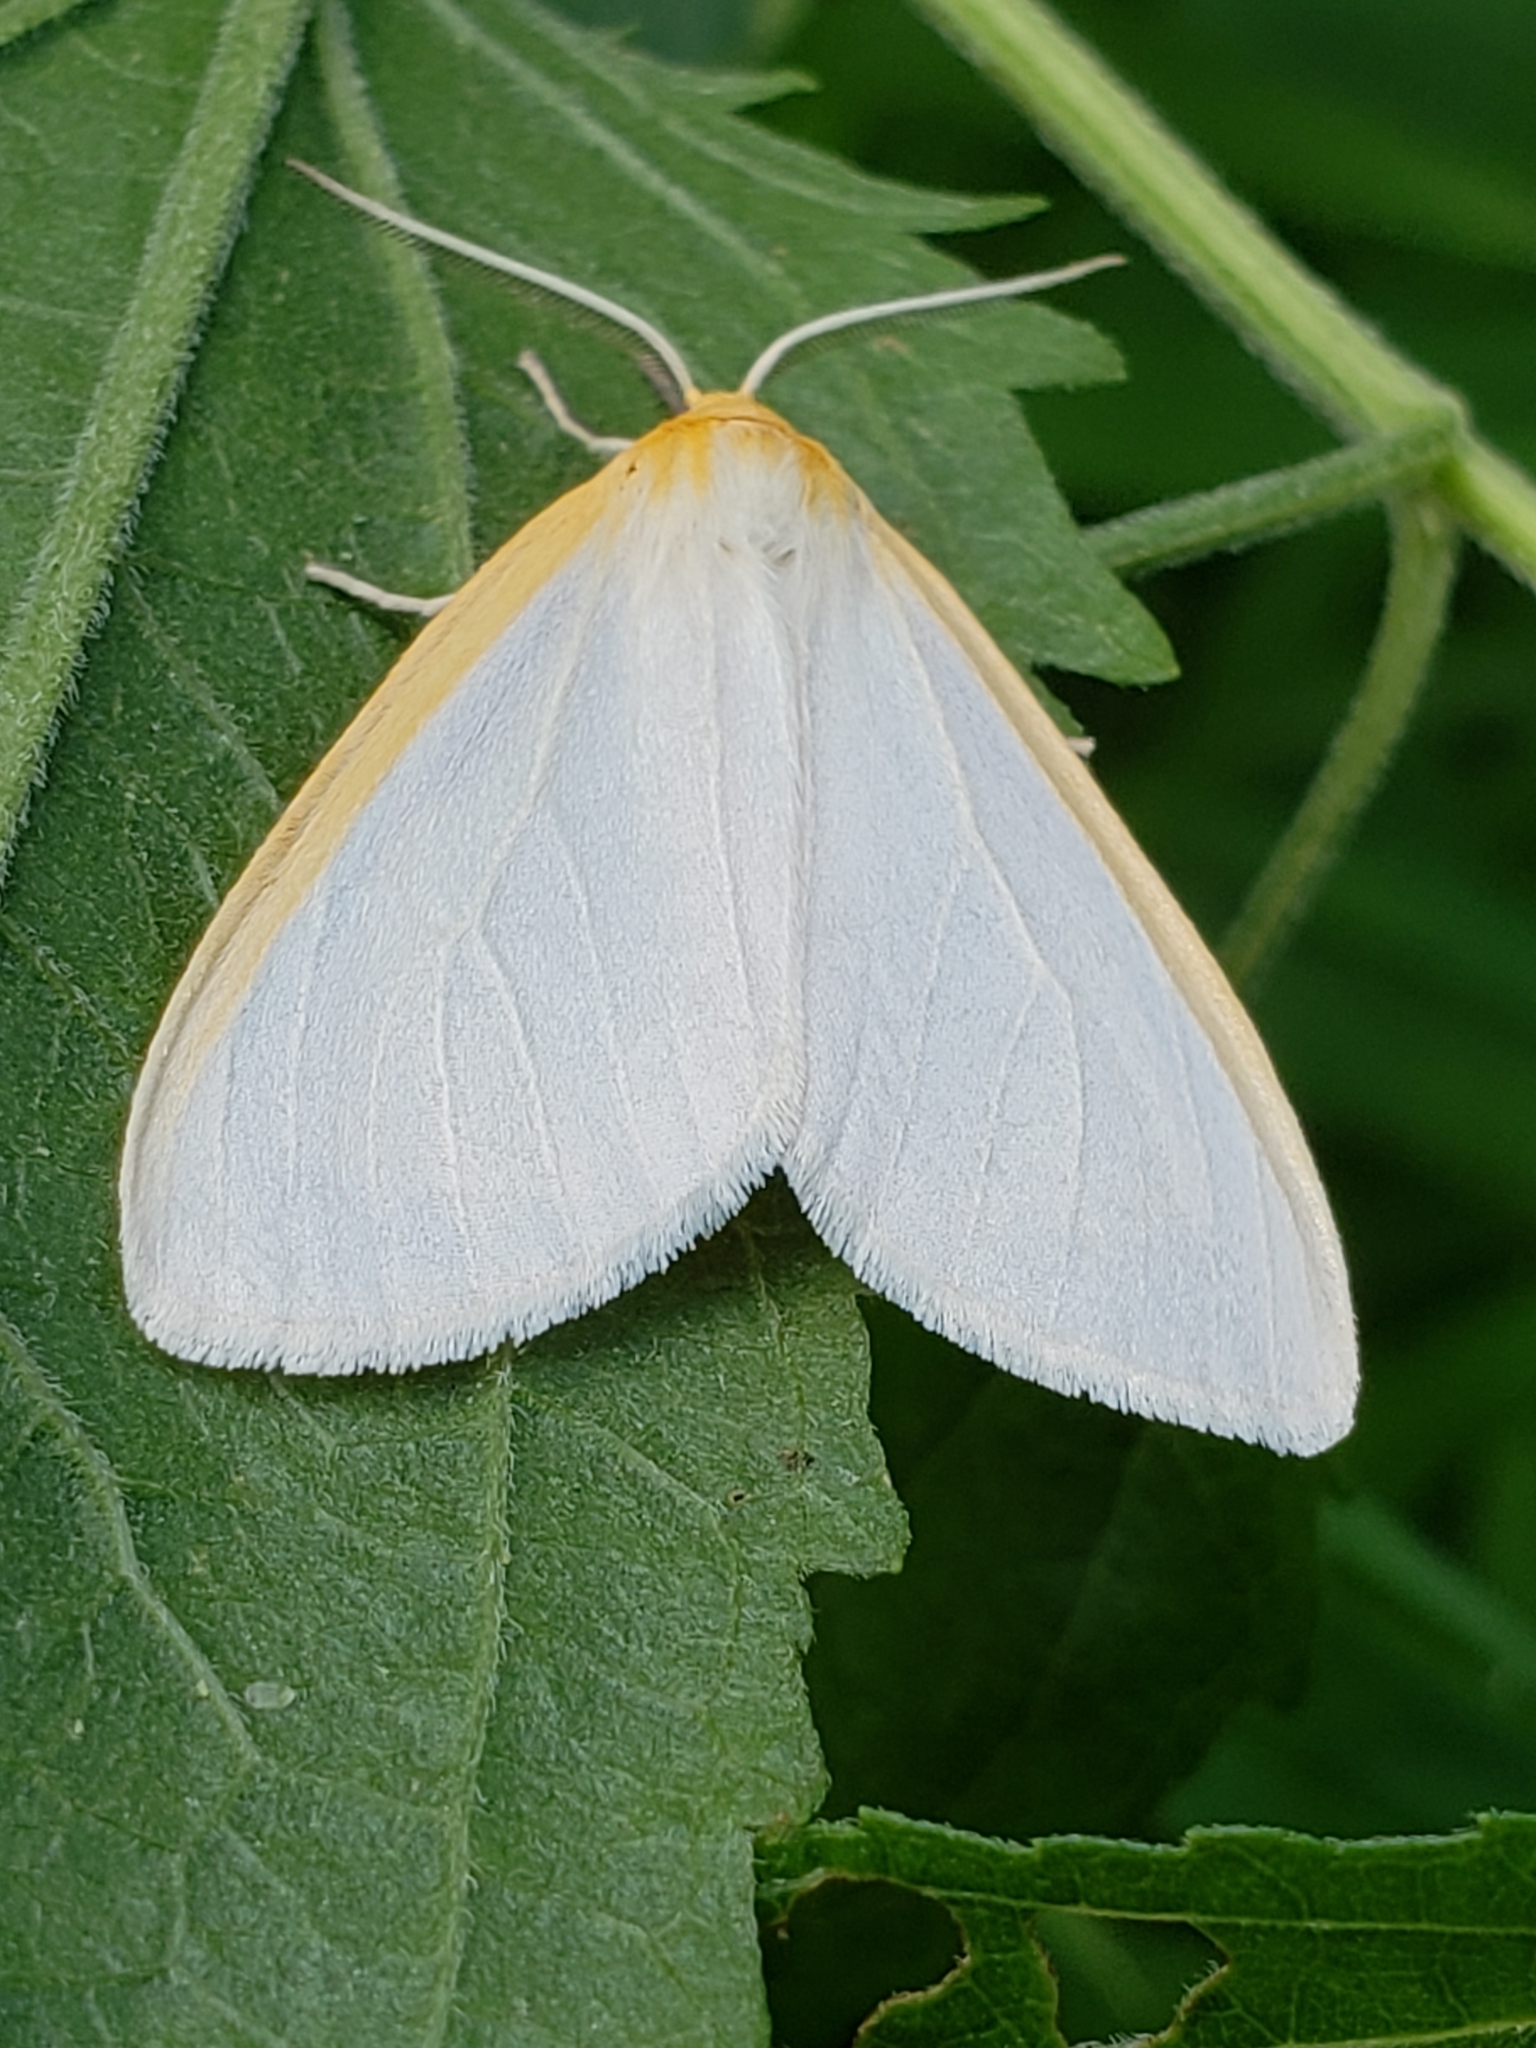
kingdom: Animalia
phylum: Arthropoda
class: Insecta
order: Lepidoptera
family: Erebidae
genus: Cycnia
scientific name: Cycnia tenera
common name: Delicate cycnia moth
